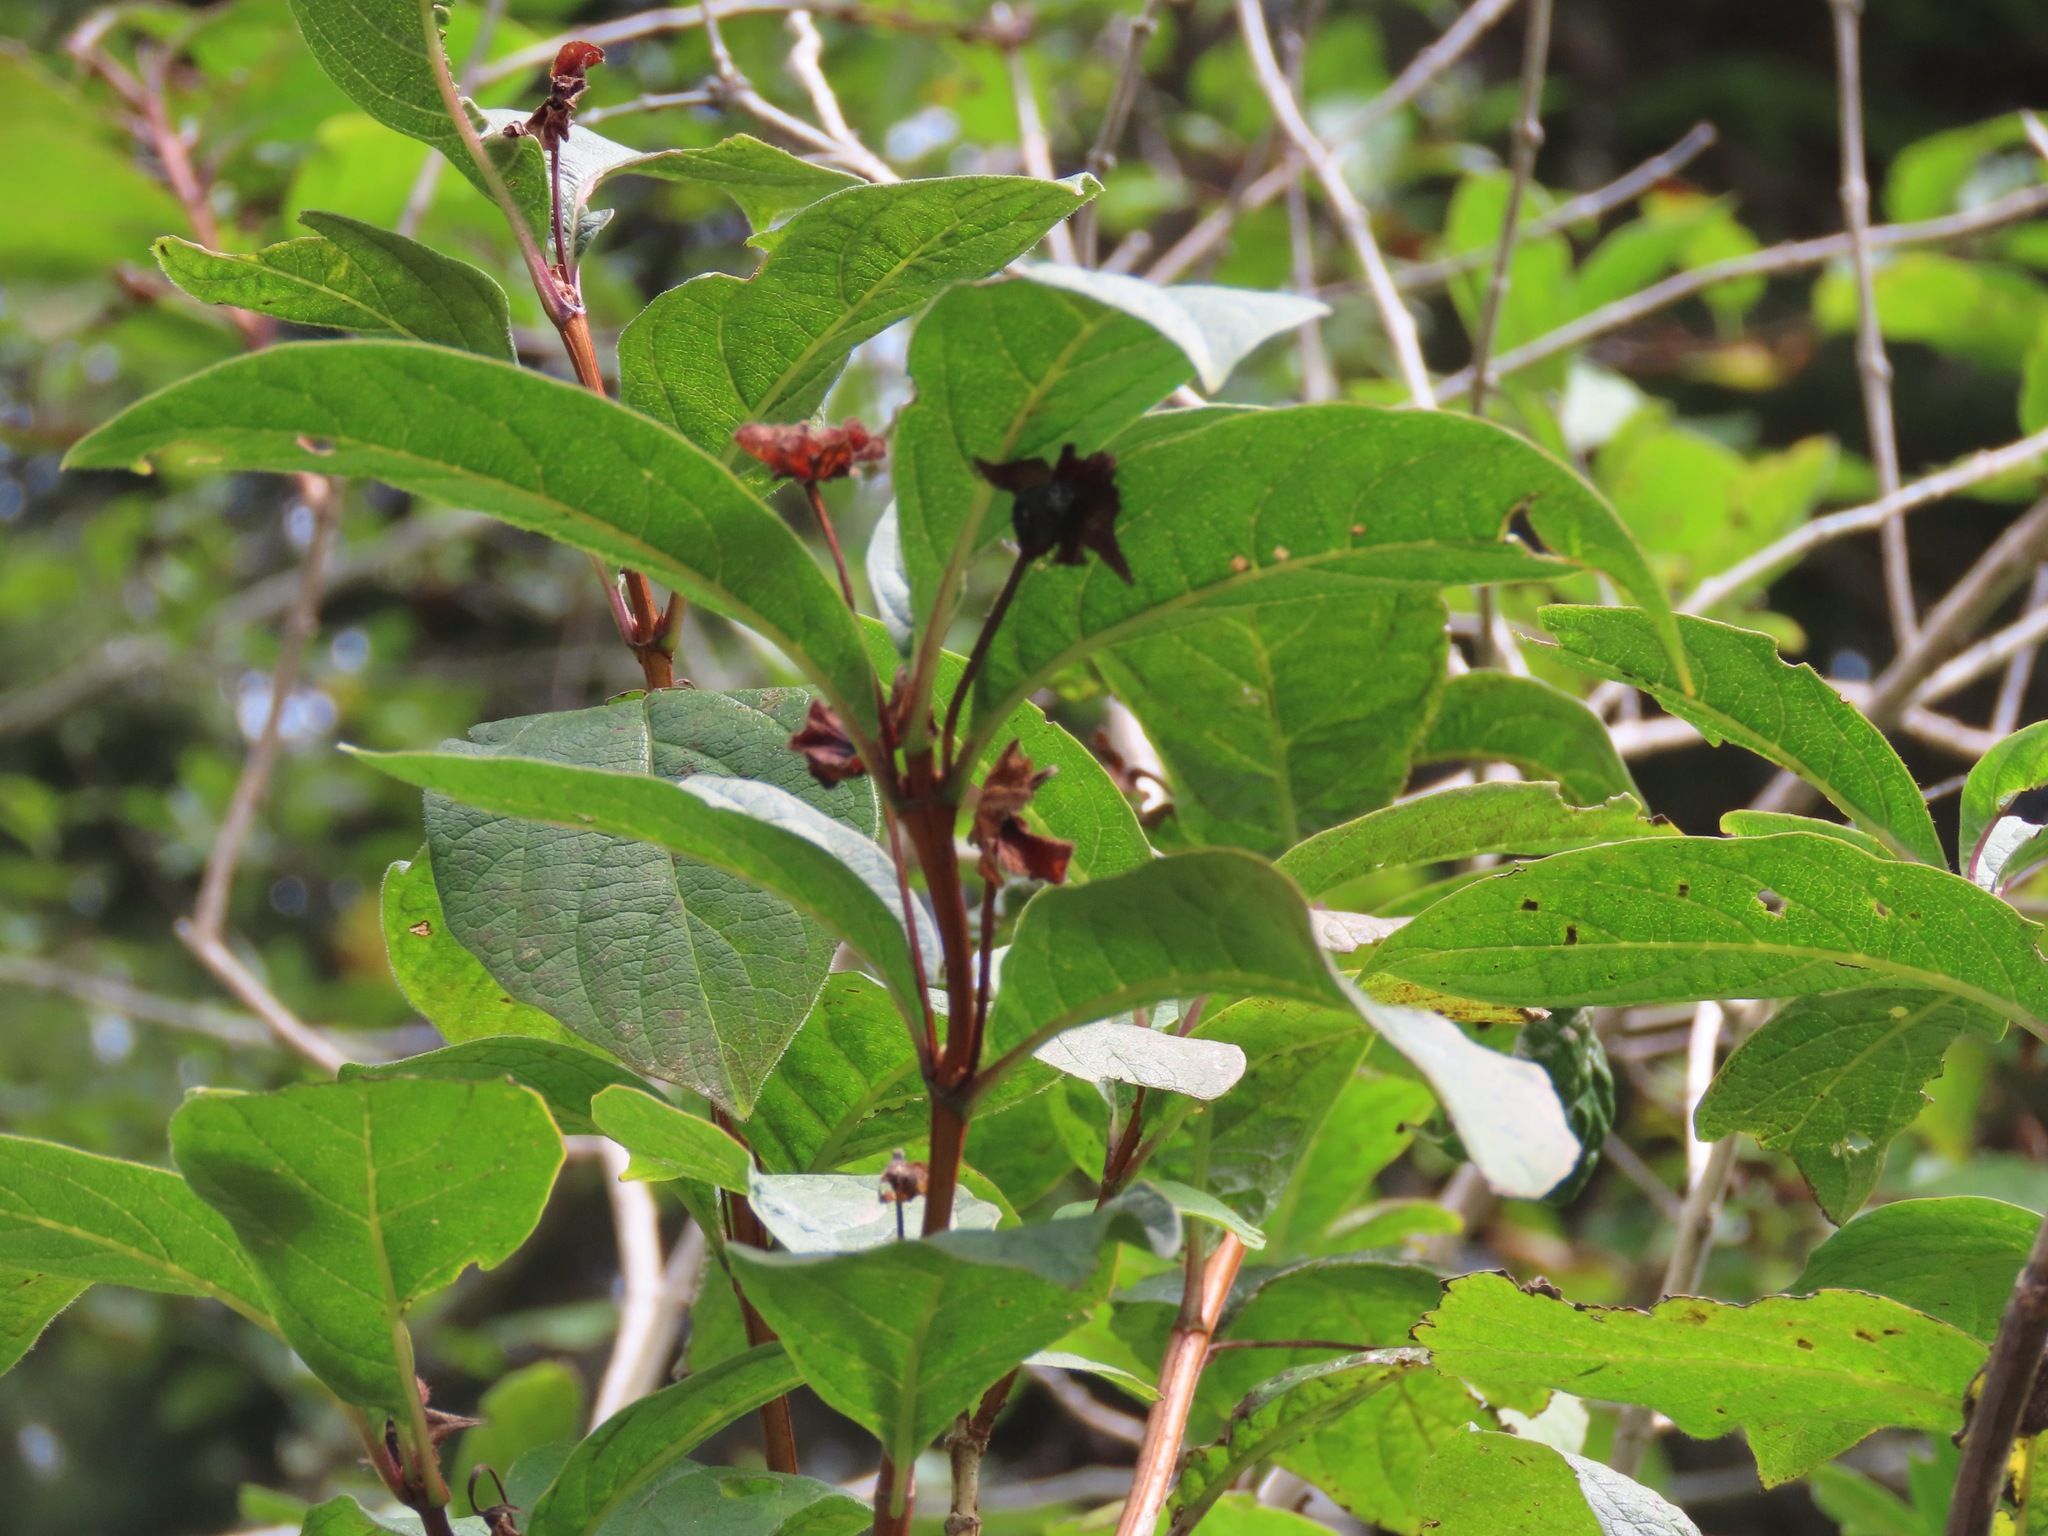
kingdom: Plantae
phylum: Tracheophyta
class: Magnoliopsida
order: Dipsacales
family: Caprifoliaceae
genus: Lonicera
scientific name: Lonicera involucrata
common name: Californian honeysuckle
